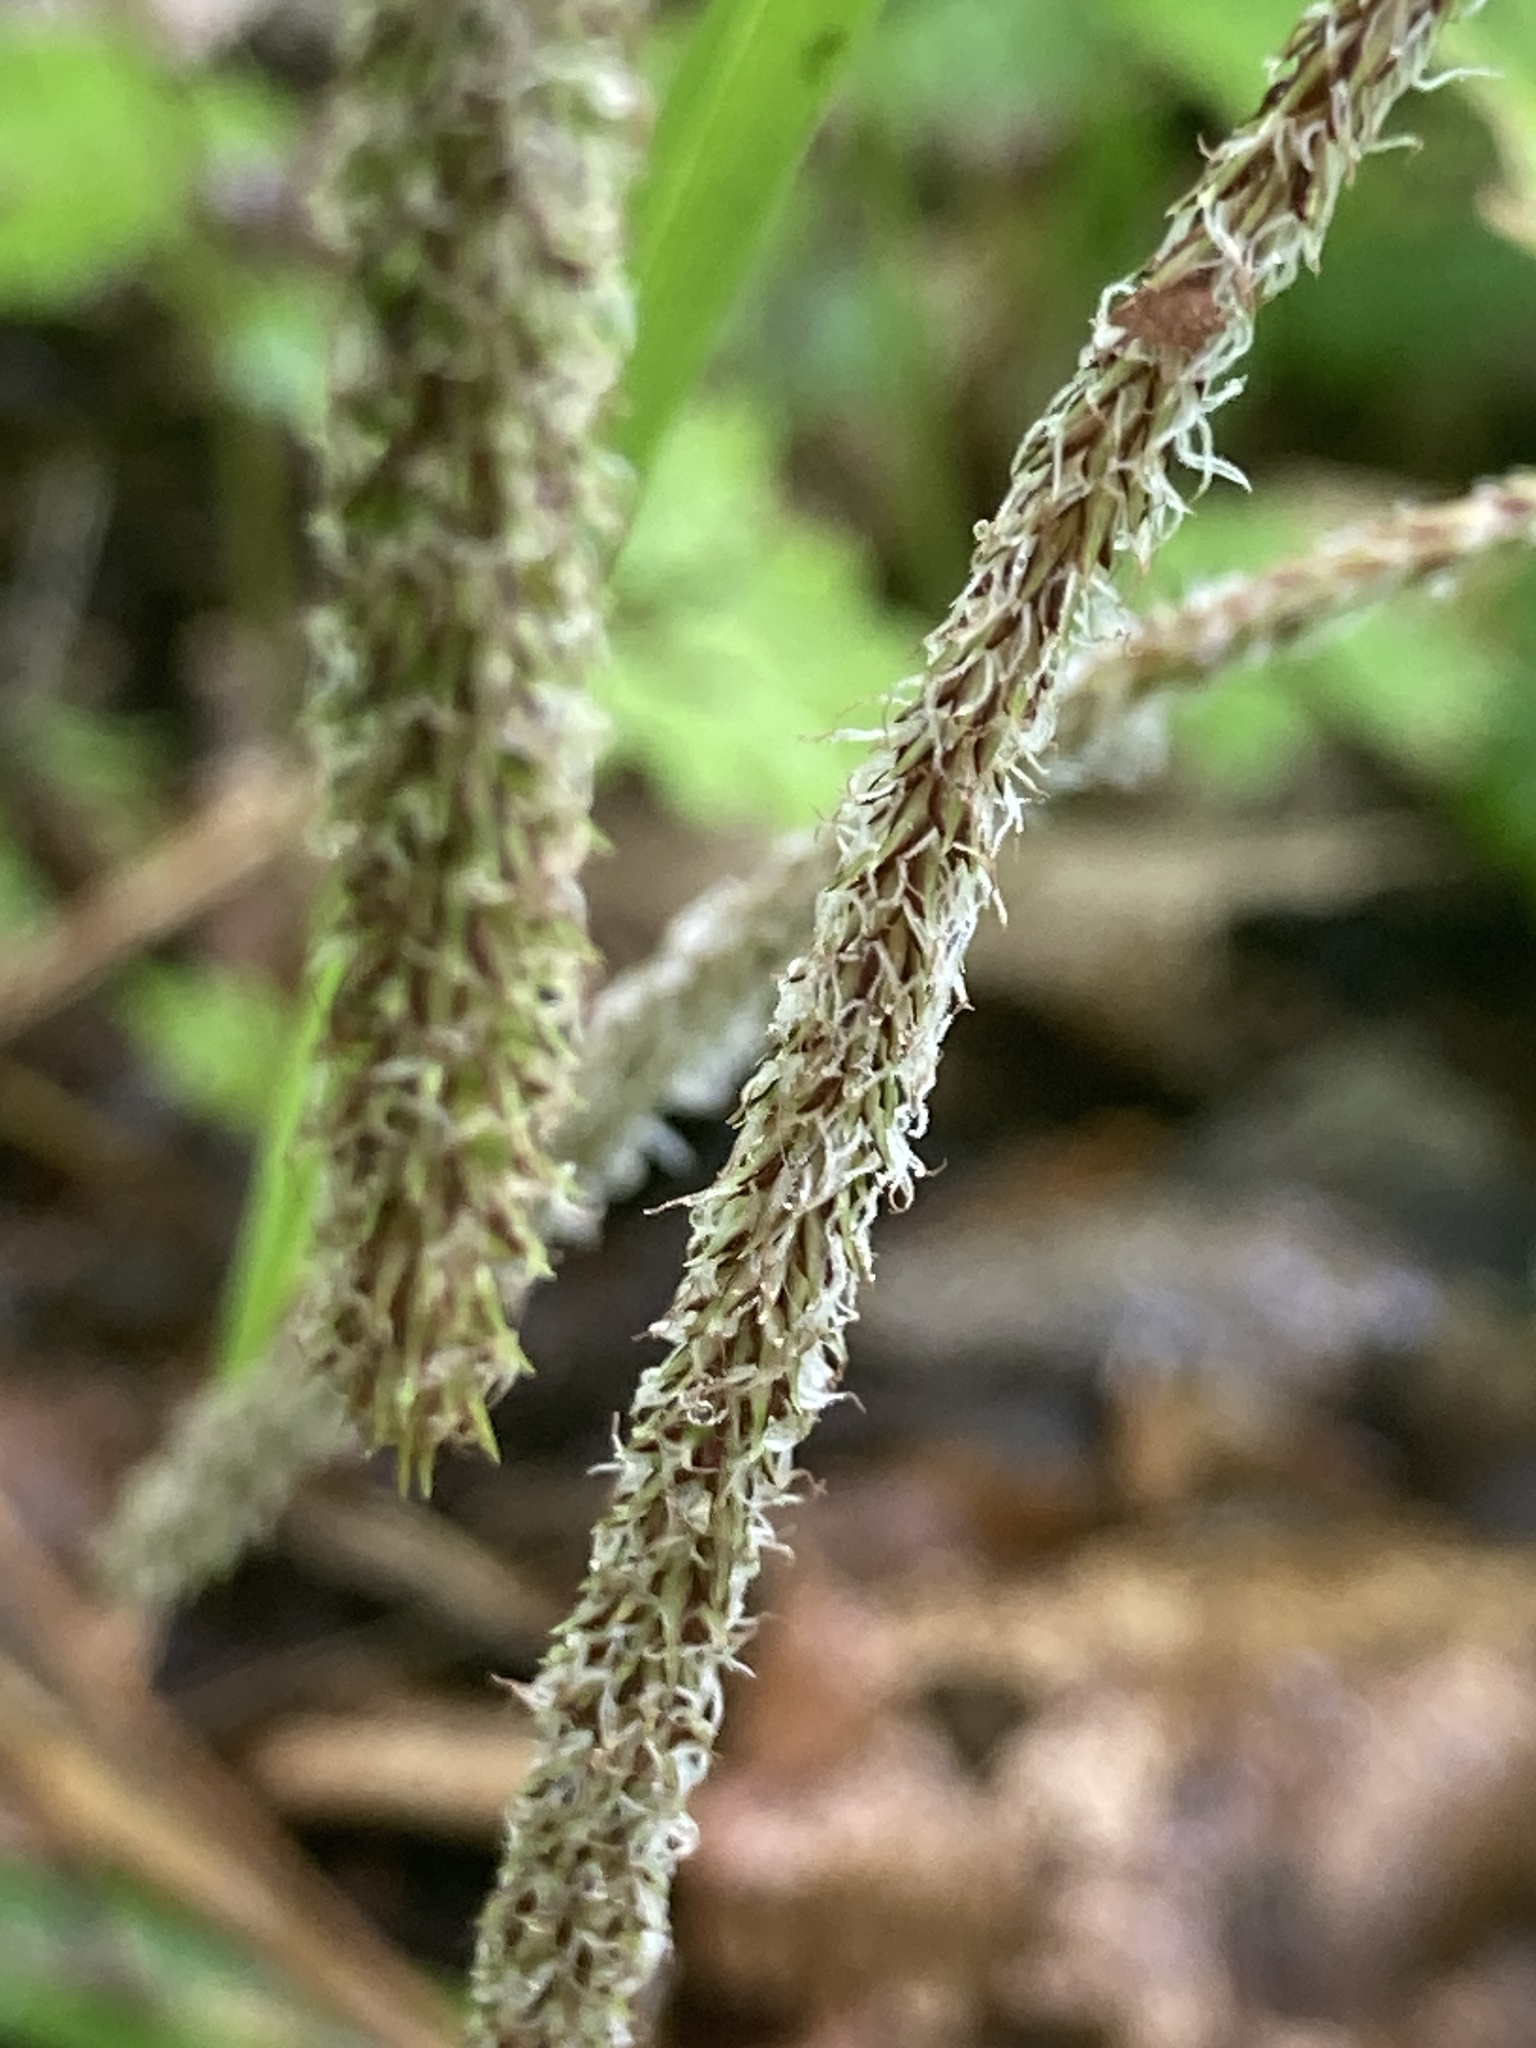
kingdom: Plantae
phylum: Tracheophyta
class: Liliopsida
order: Poales
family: Cyperaceae
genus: Carex
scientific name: Carex pendula
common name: Pendulous sedge
